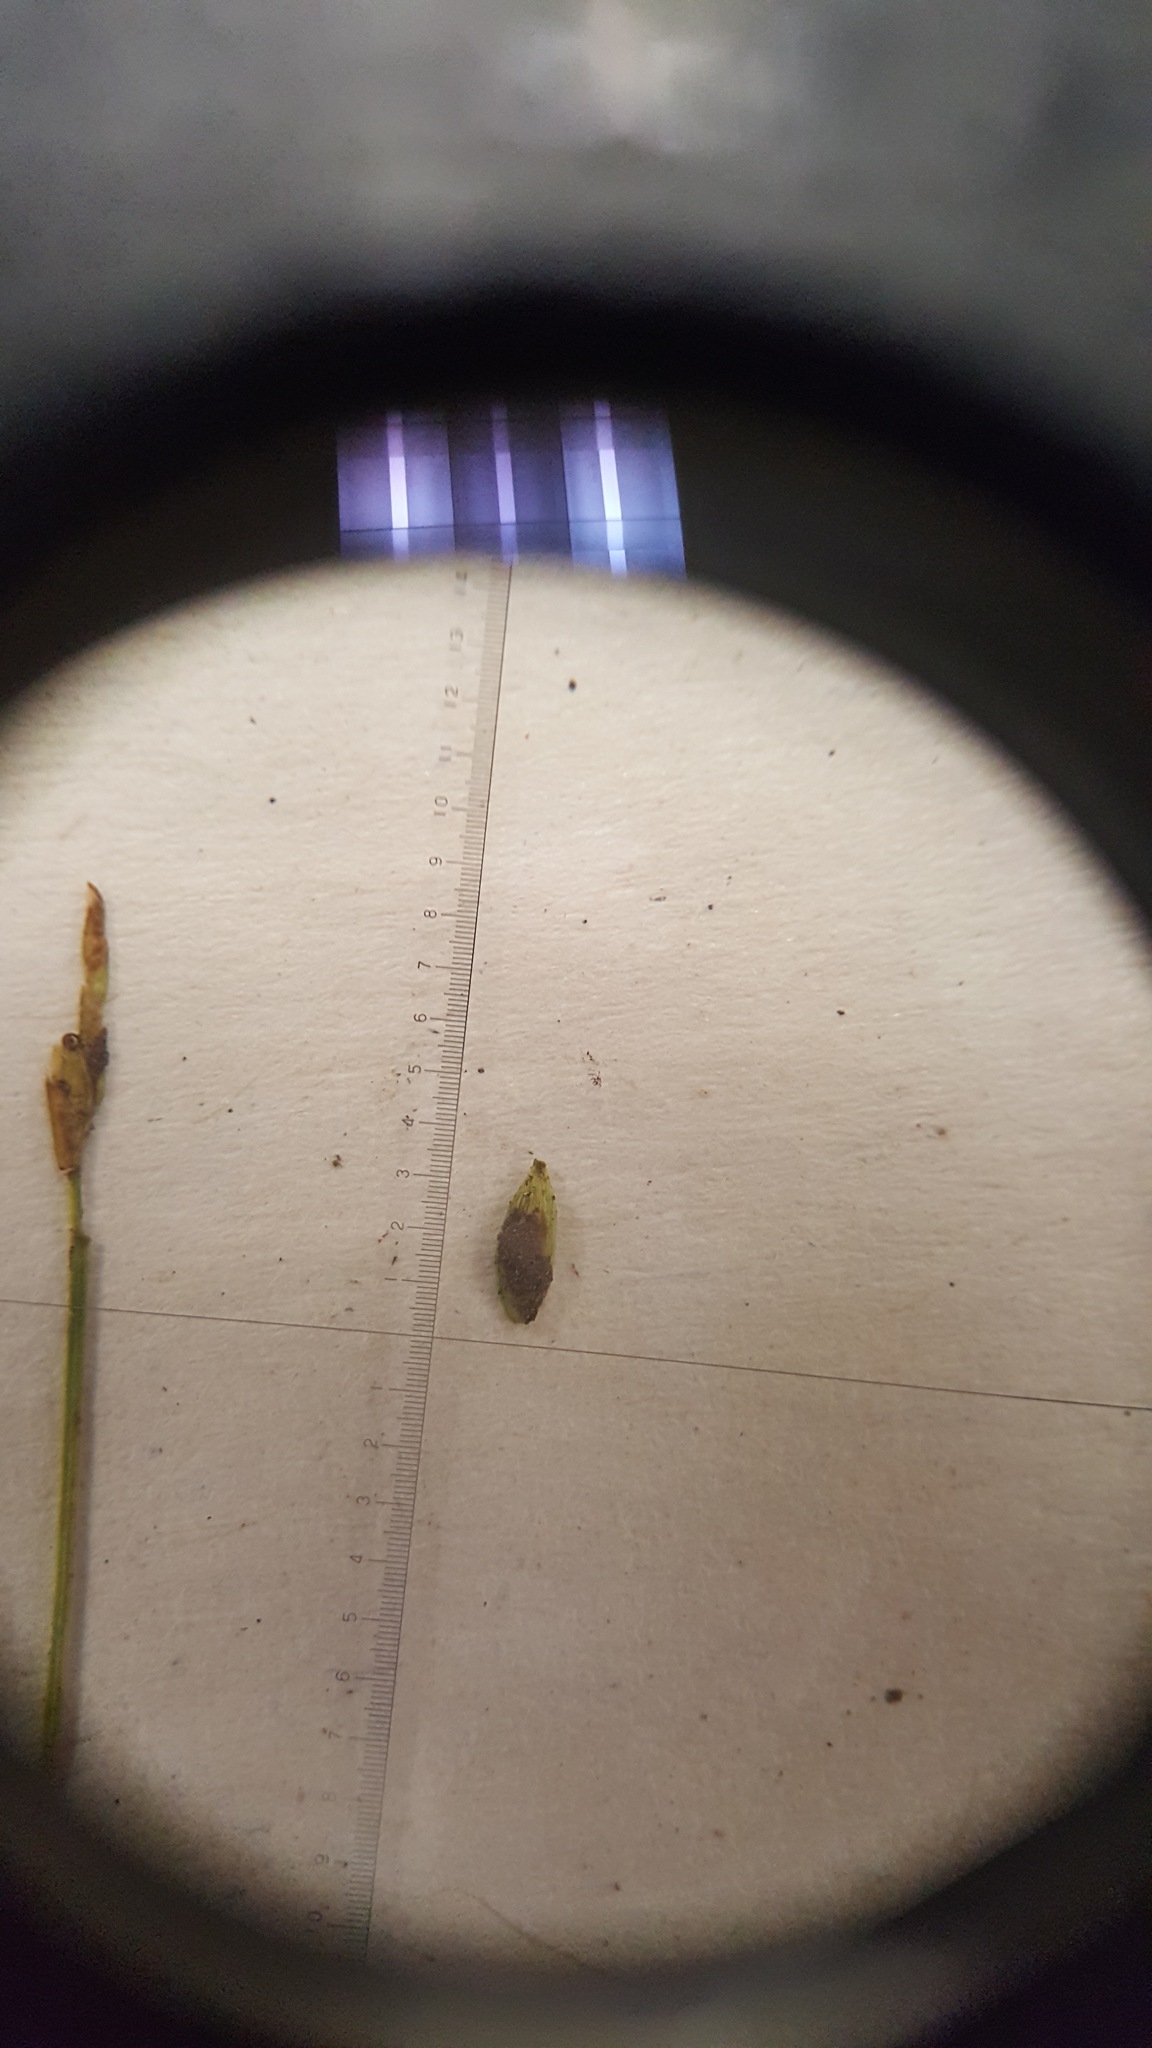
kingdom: Plantae
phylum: Tracheophyta
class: Liliopsida
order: Poales
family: Cyperaceae
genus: Carex
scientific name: Carex leptalea
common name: Bristly-stalked sedge
